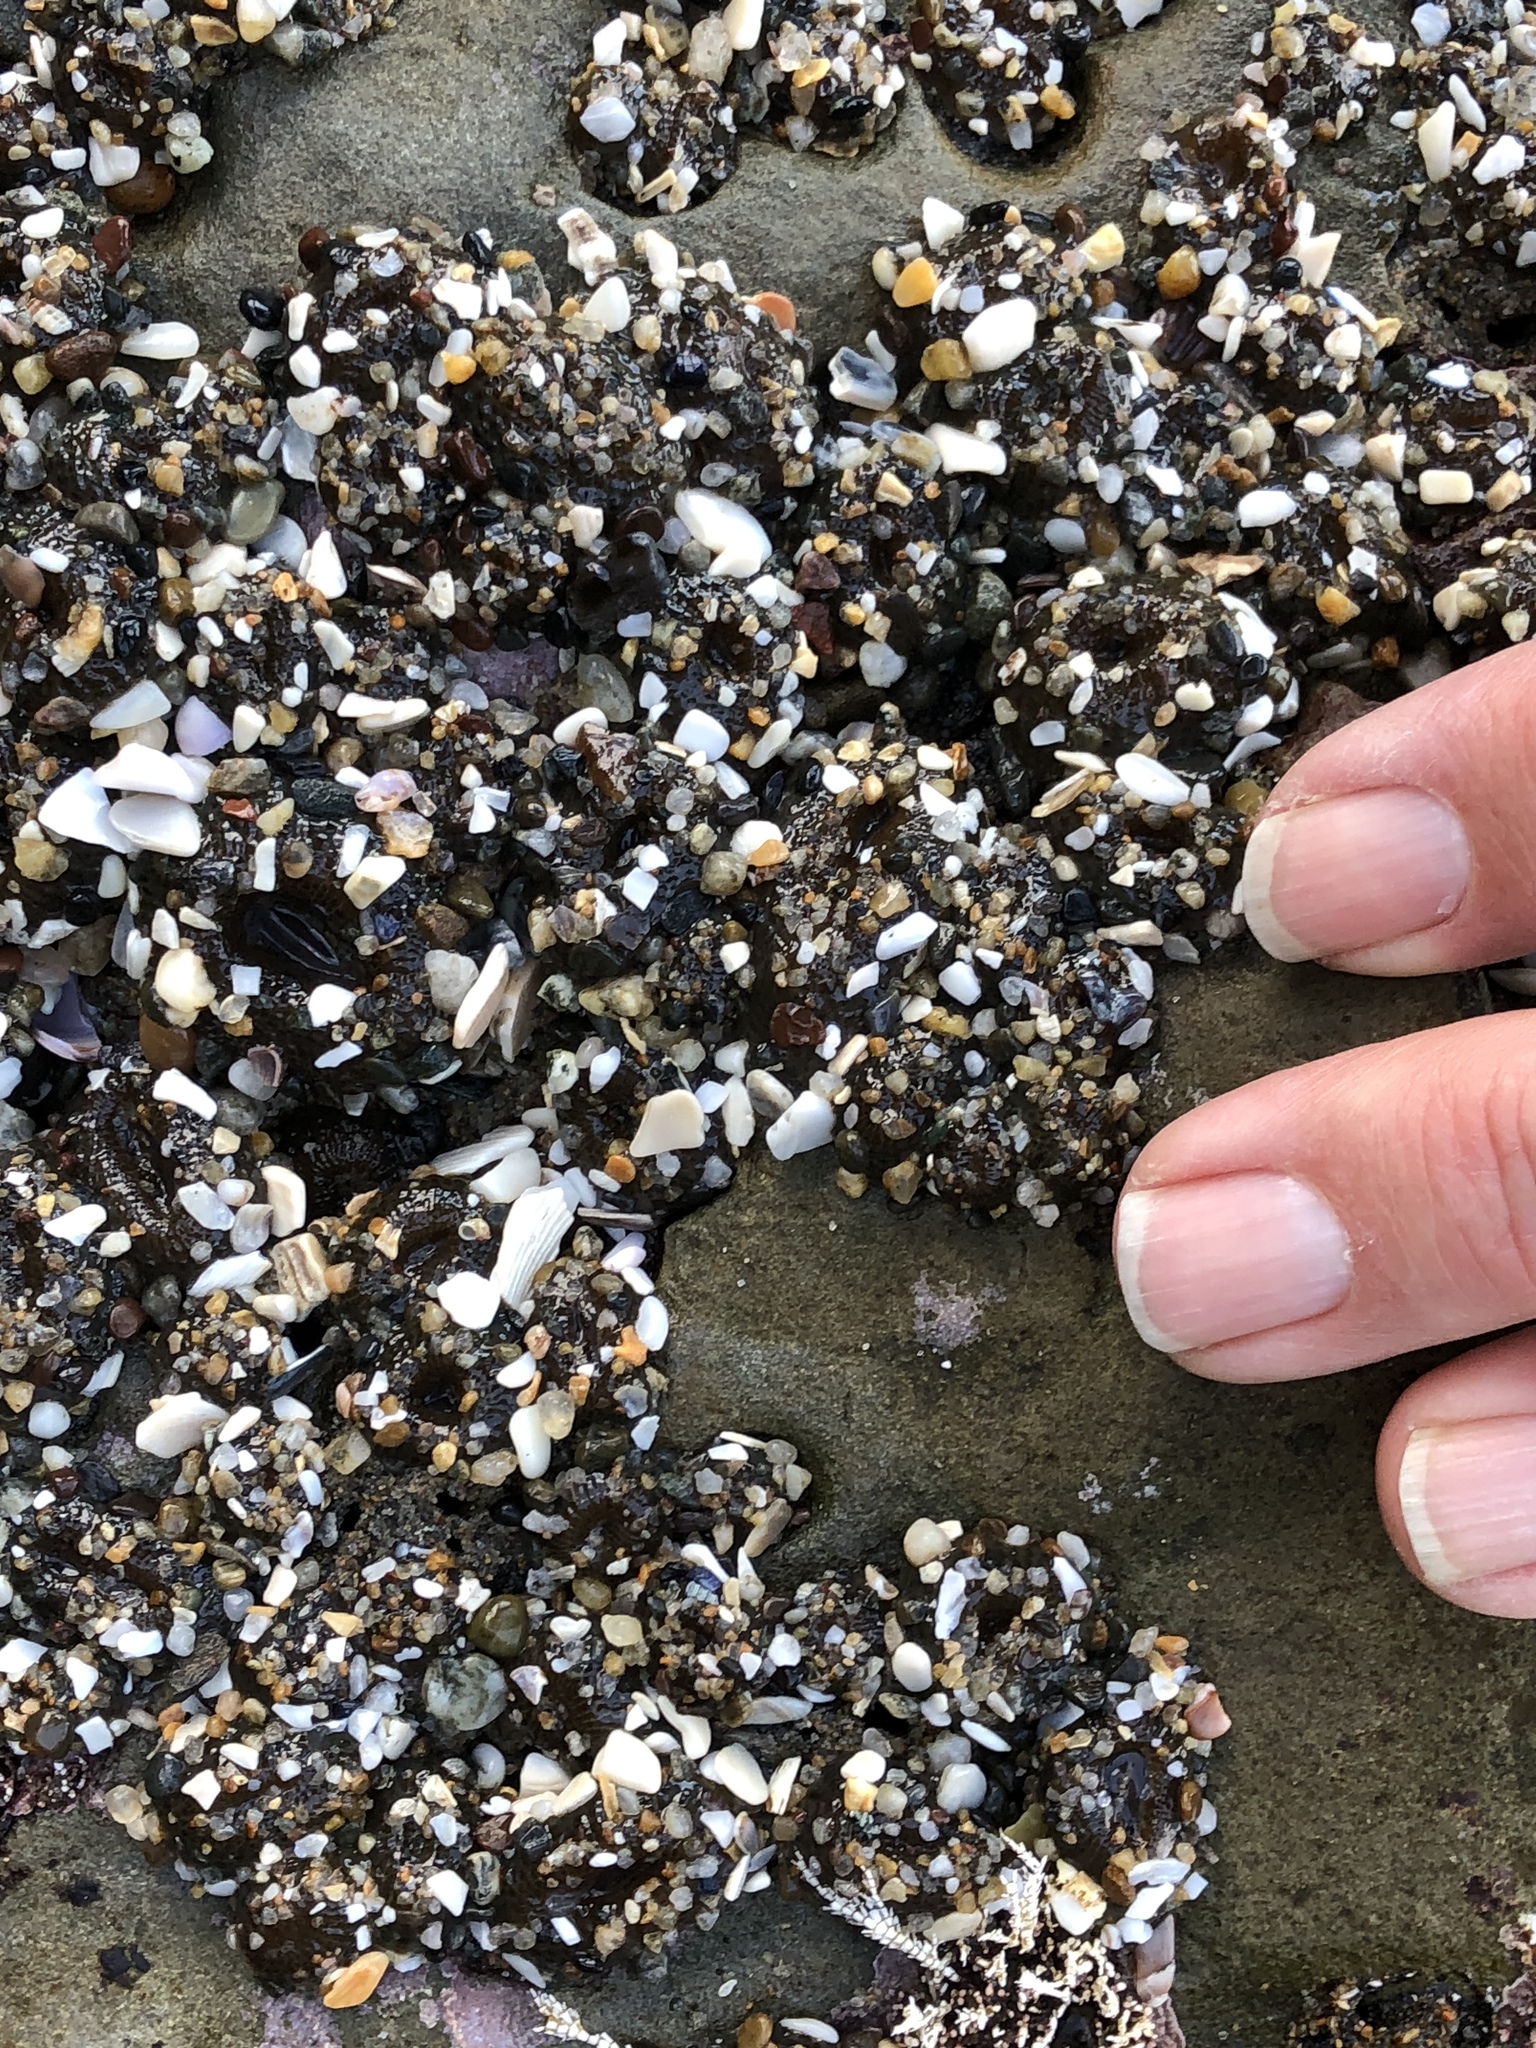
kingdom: Animalia
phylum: Cnidaria
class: Anthozoa
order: Actiniaria
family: Actiniidae
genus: Anthopleura
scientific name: Anthopleura elegantissima
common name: Clonal anemone
